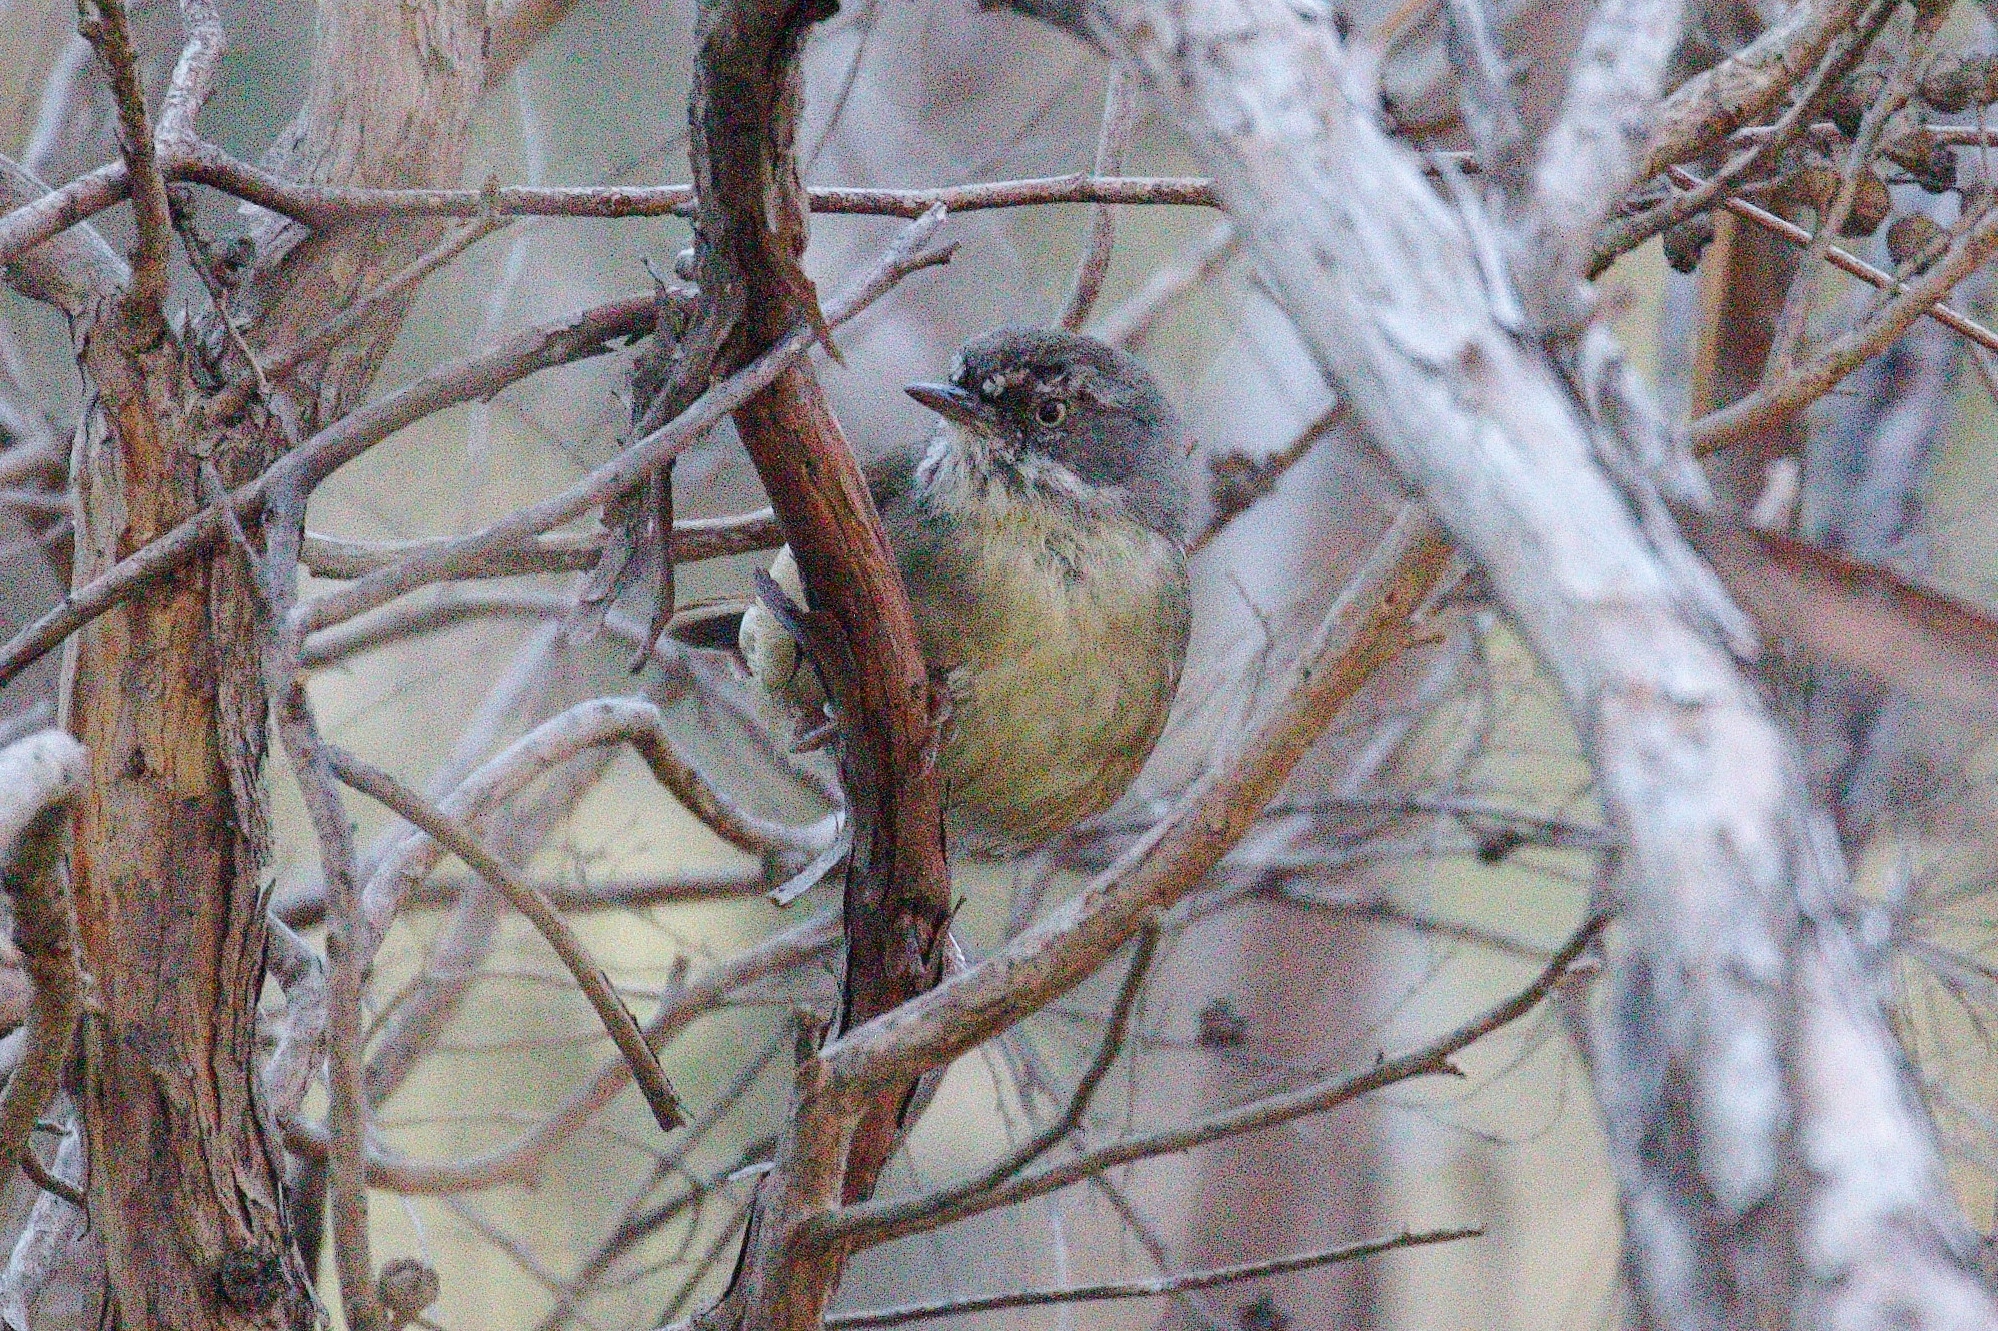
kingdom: Animalia
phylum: Chordata
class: Aves
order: Passeriformes
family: Acanthizidae
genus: Sericornis
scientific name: Sericornis frontalis
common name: White-browed scrubwren
